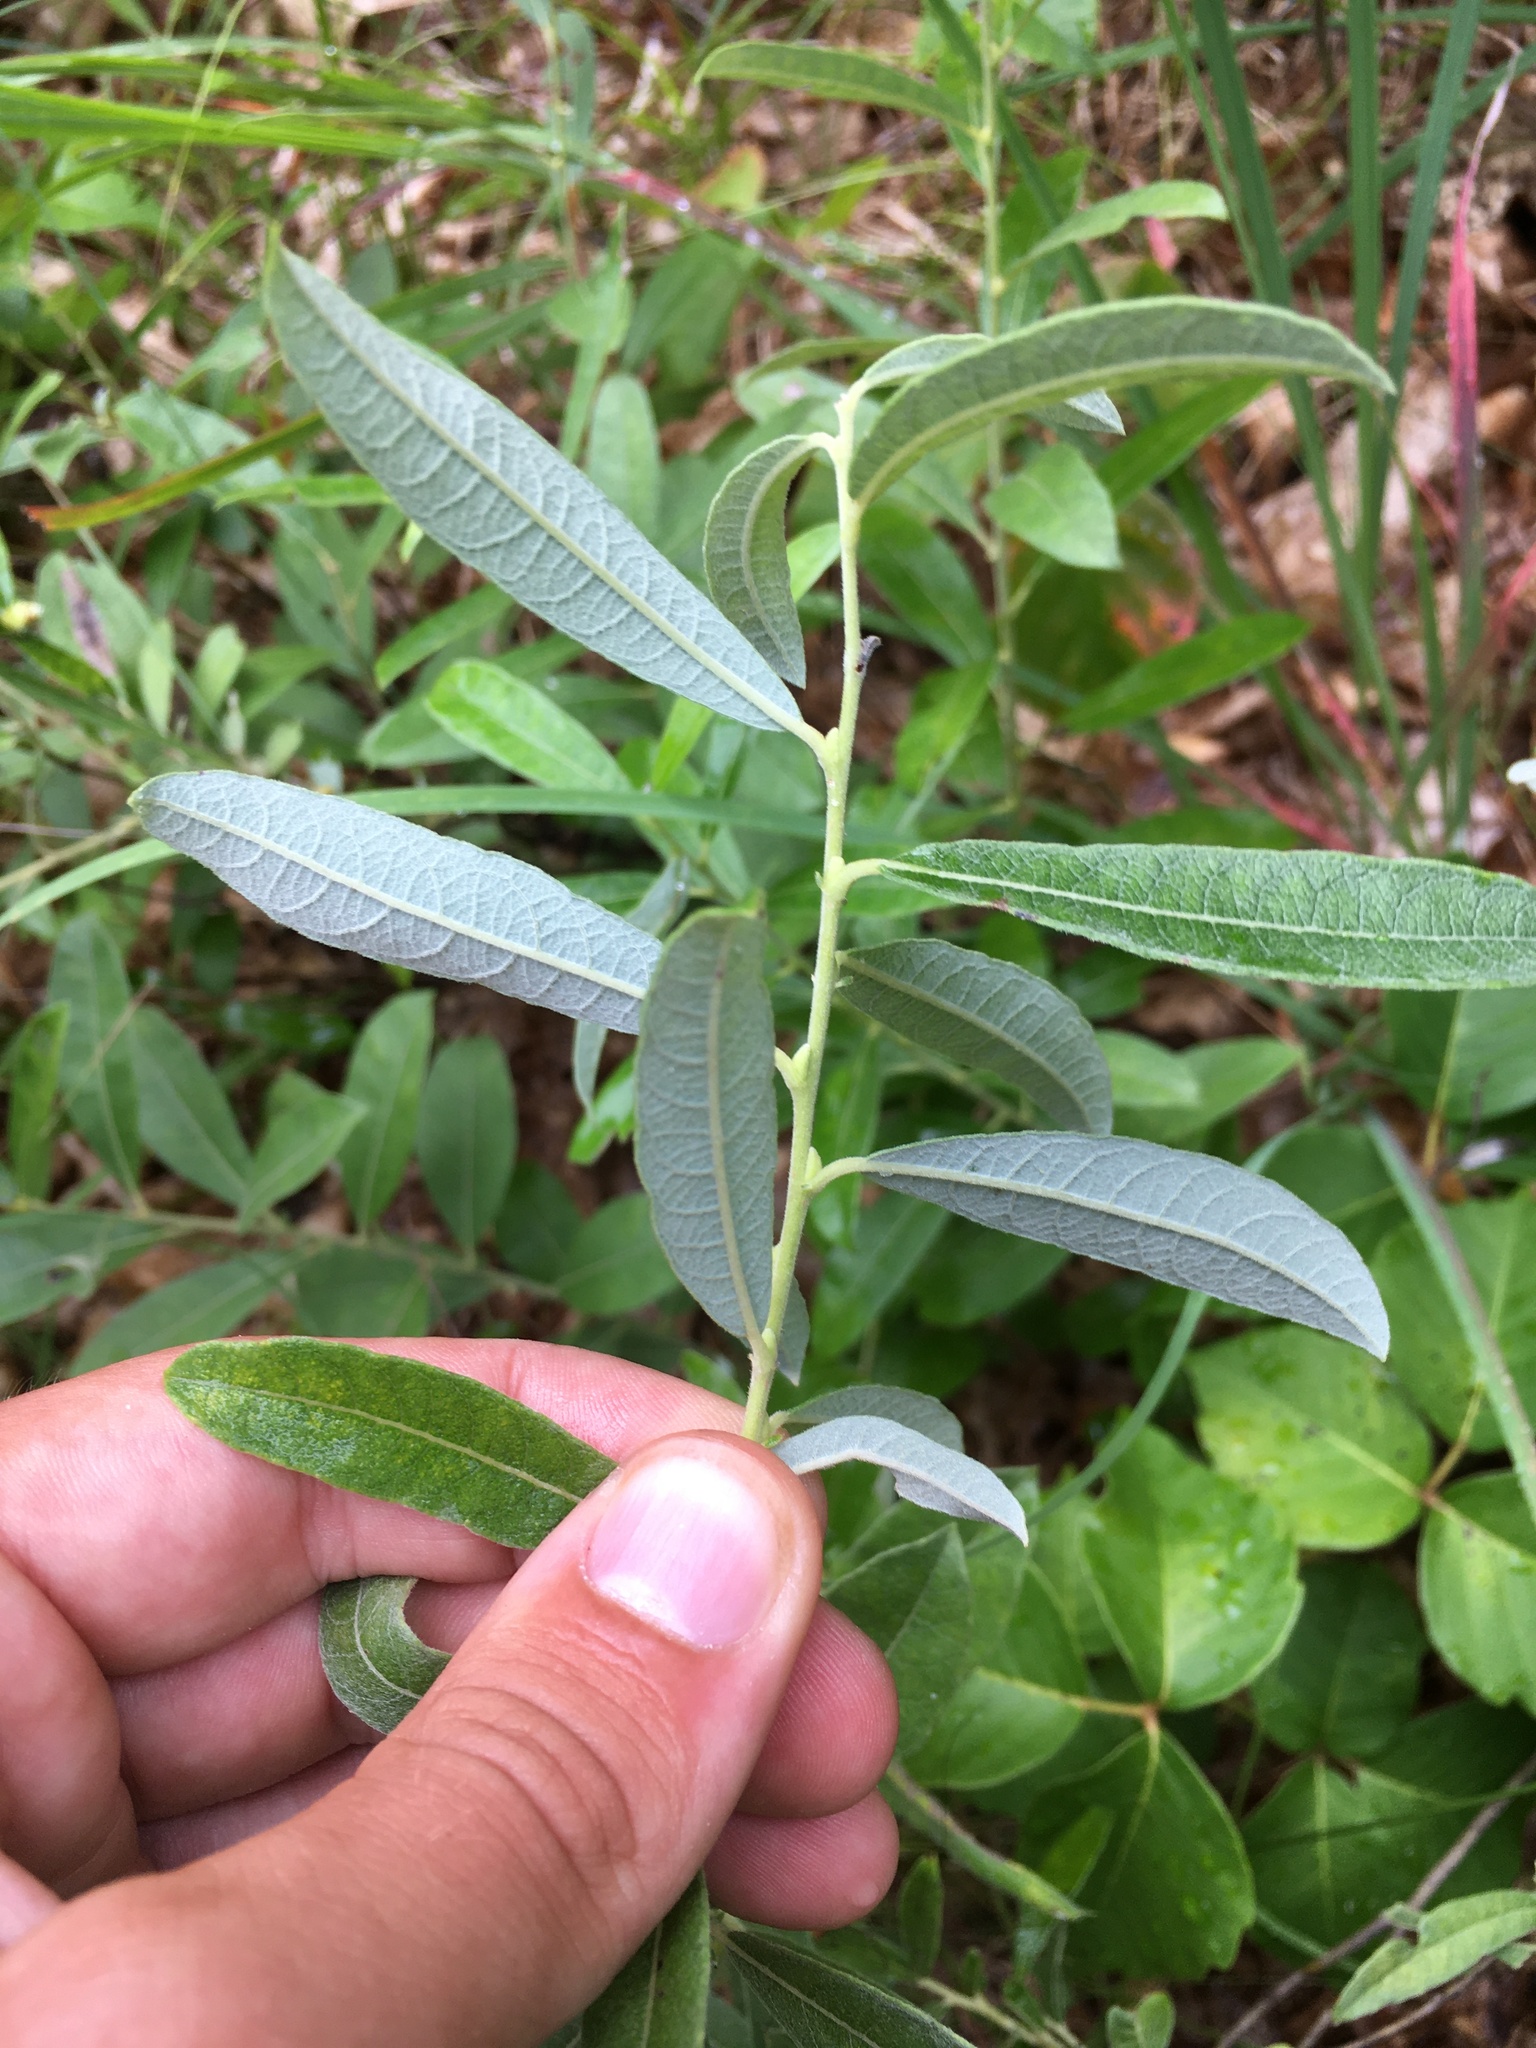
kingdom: Plantae
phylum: Tracheophyta
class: Magnoliopsida
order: Malpighiales
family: Salicaceae
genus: Salix
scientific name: Salix humilis
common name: Prairie willow
